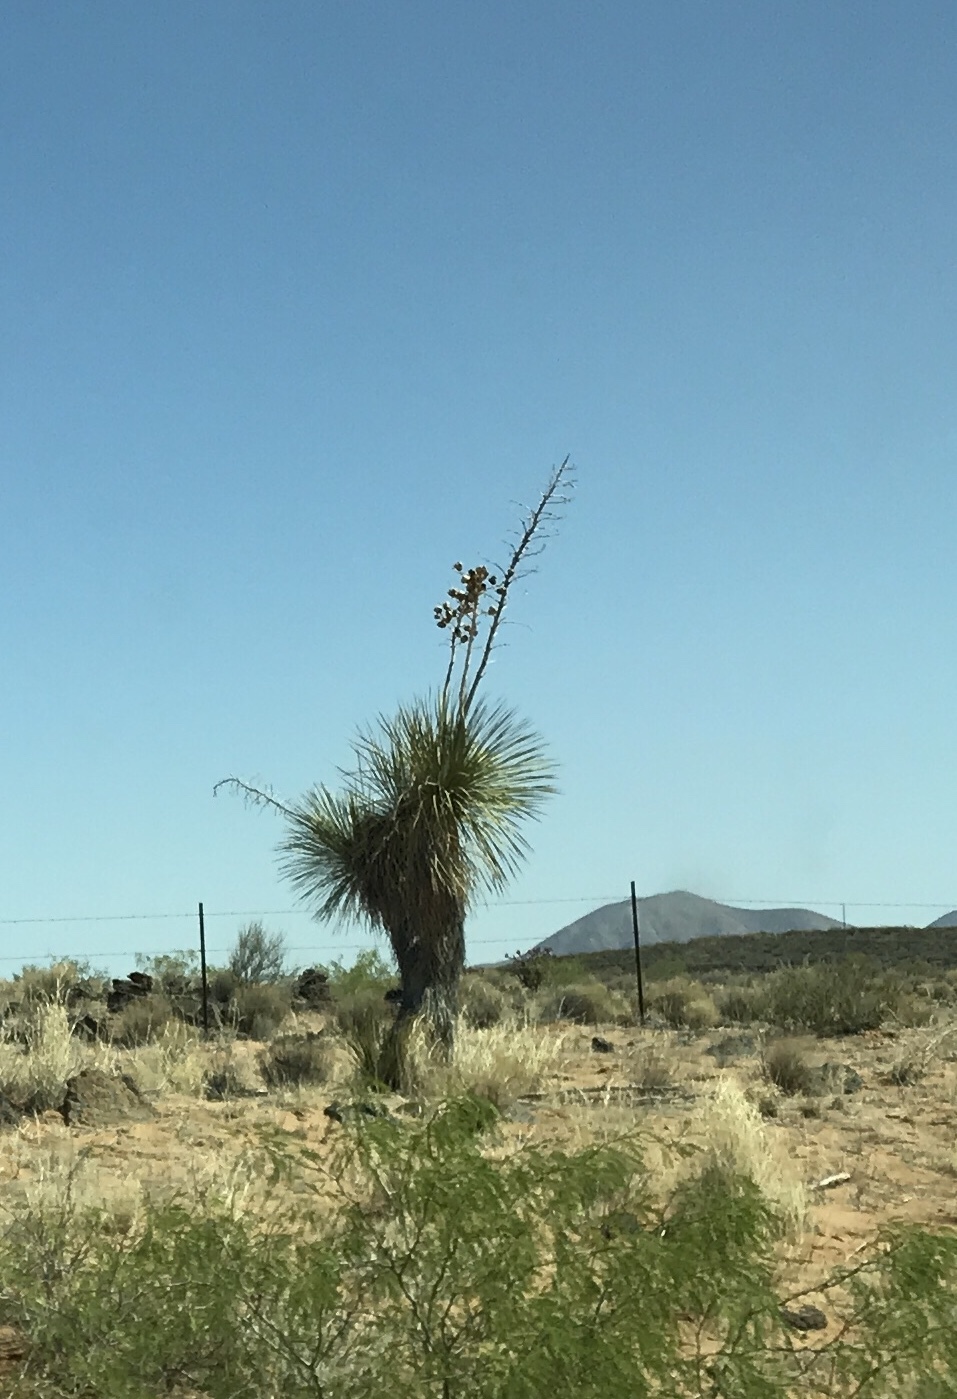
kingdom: Plantae
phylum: Tracheophyta
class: Liliopsida
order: Asparagales
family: Asparagaceae
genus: Yucca
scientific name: Yucca elata
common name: Palmella
